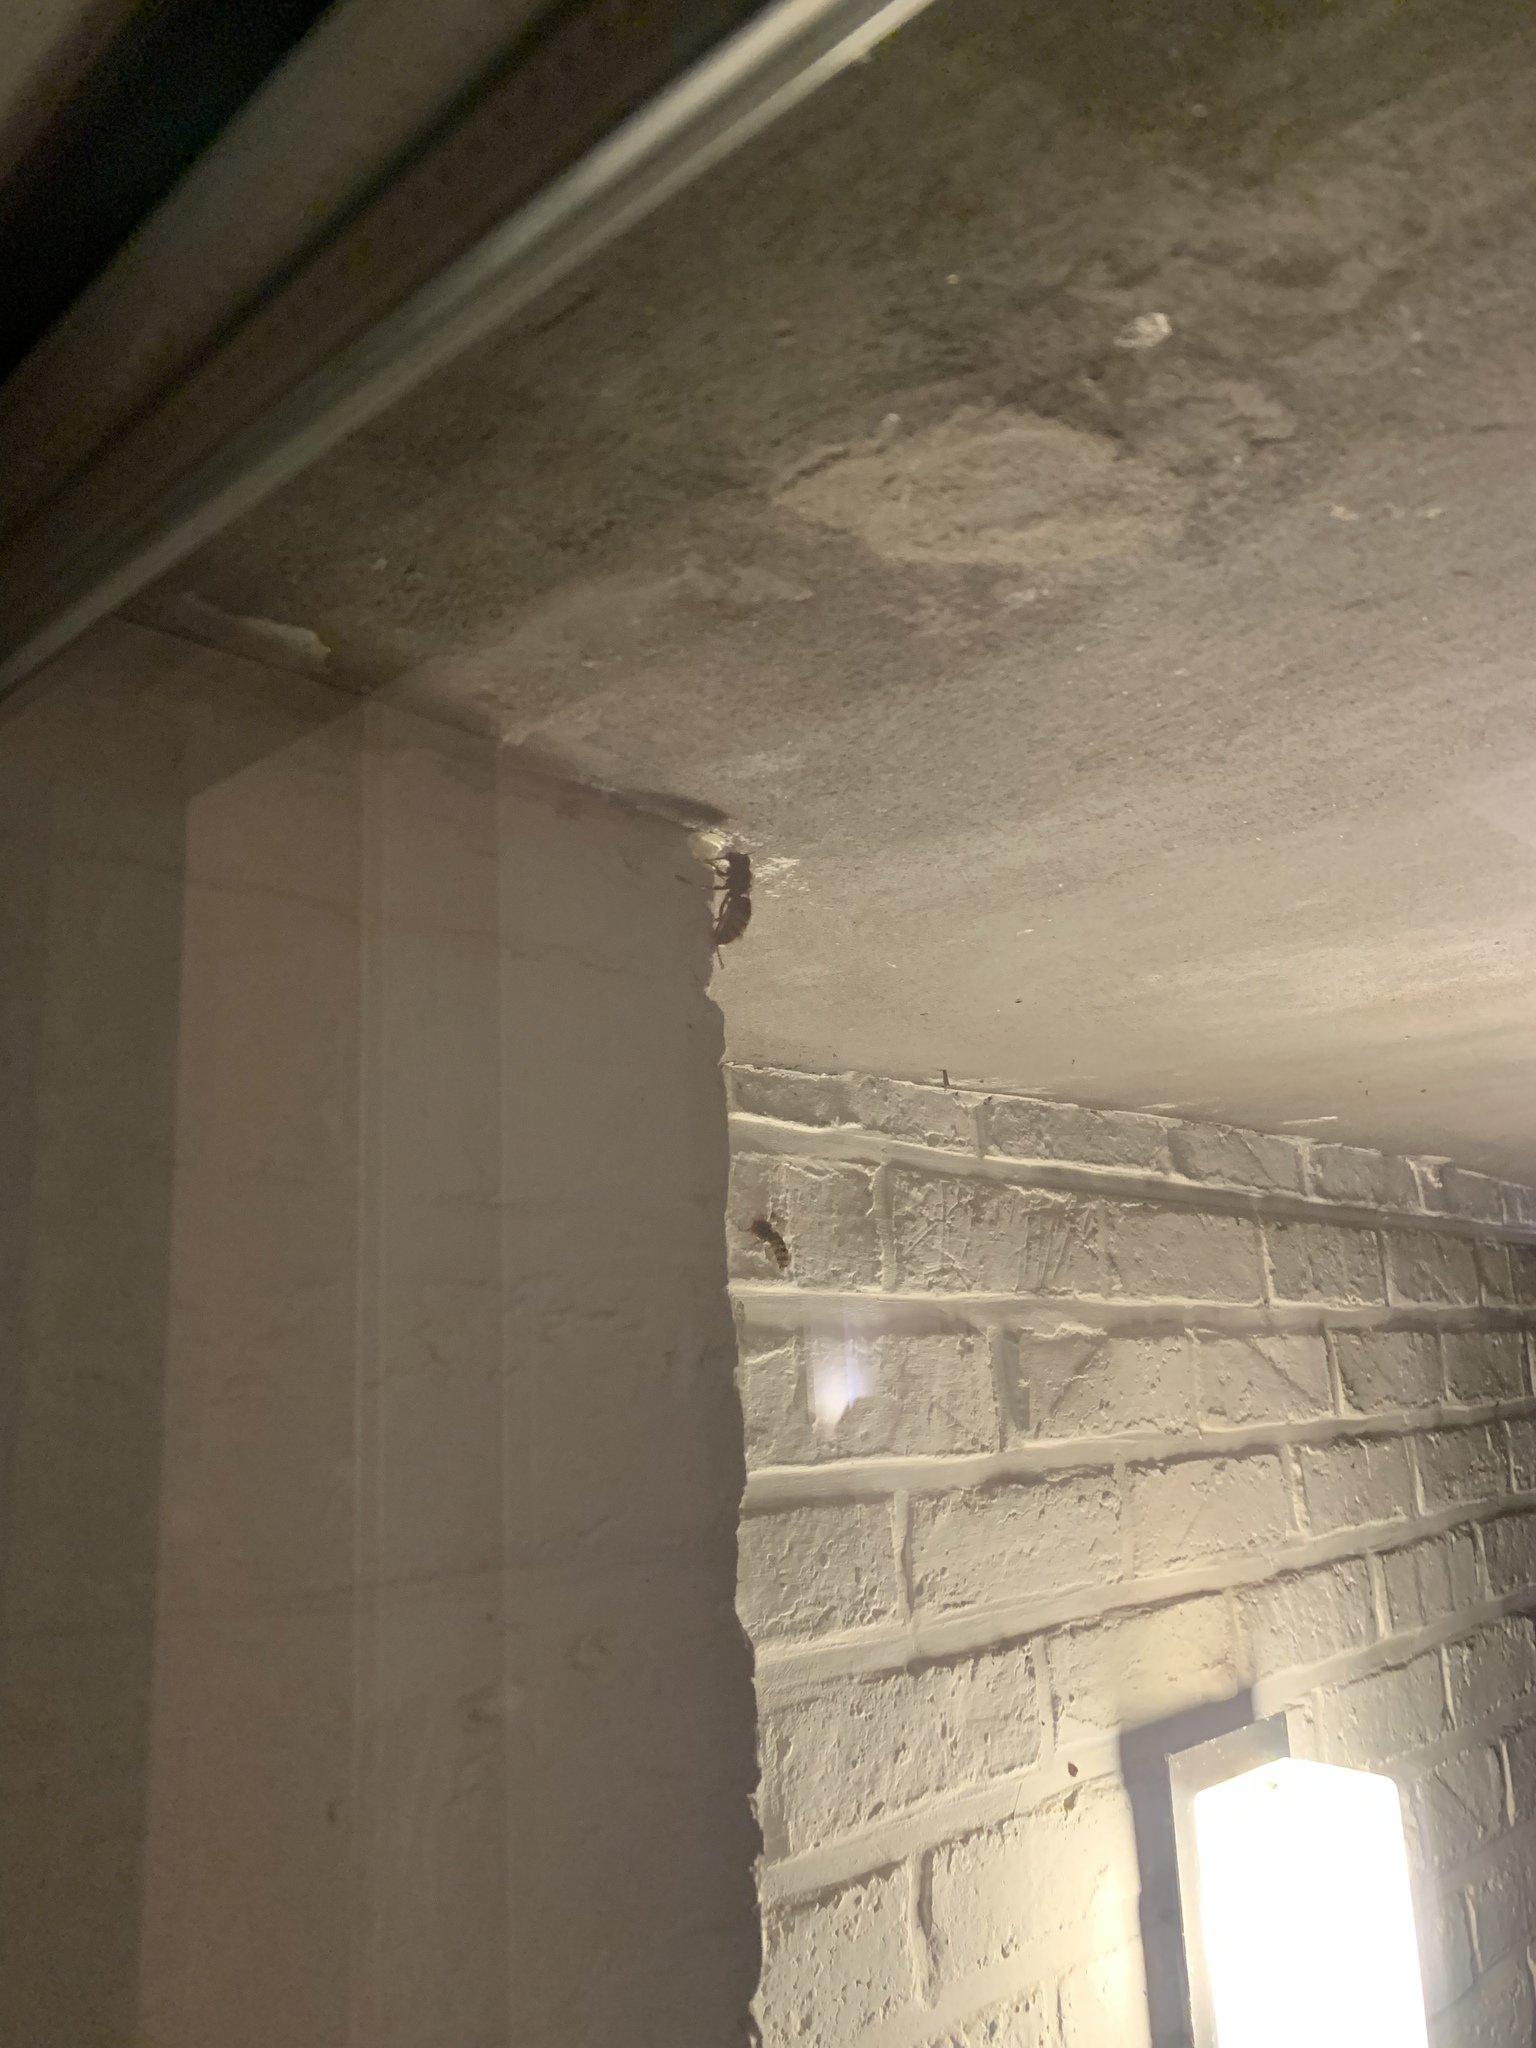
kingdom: Animalia
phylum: Arthropoda
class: Insecta
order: Hymenoptera
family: Vespidae
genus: Vespa
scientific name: Vespa crabro
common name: Hornet
